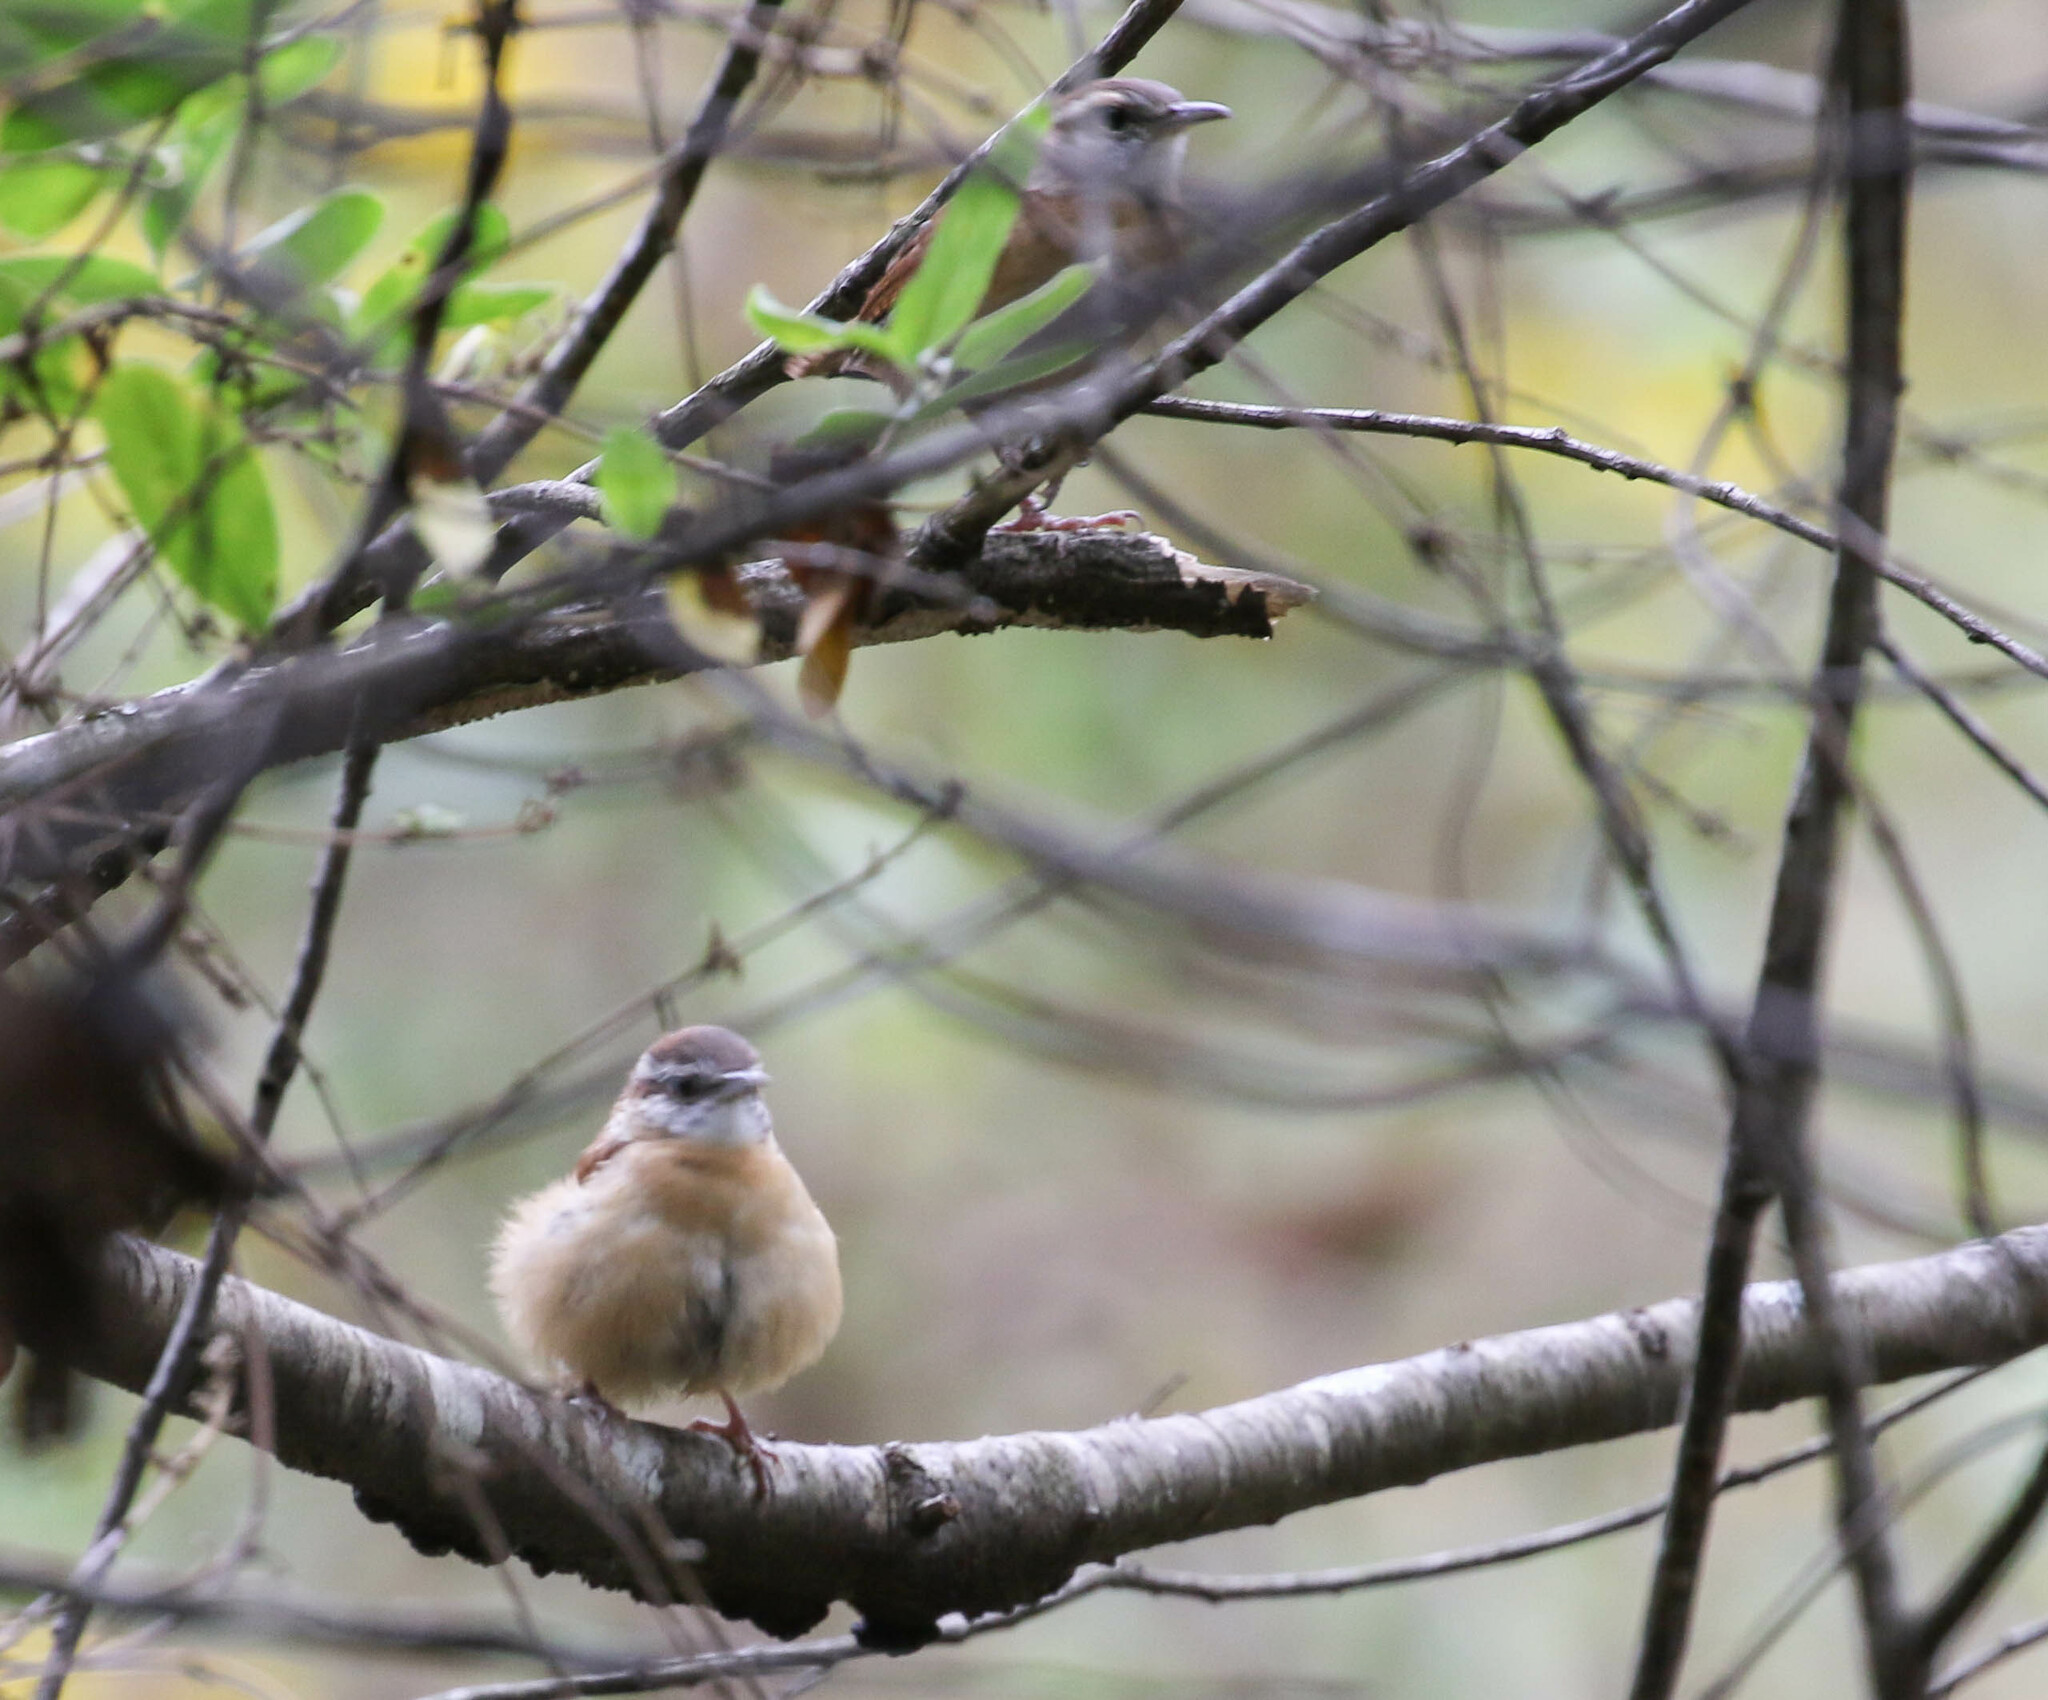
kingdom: Animalia
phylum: Chordata
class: Aves
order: Passeriformes
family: Troglodytidae
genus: Thryothorus
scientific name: Thryothorus ludovicianus
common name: Carolina wren
